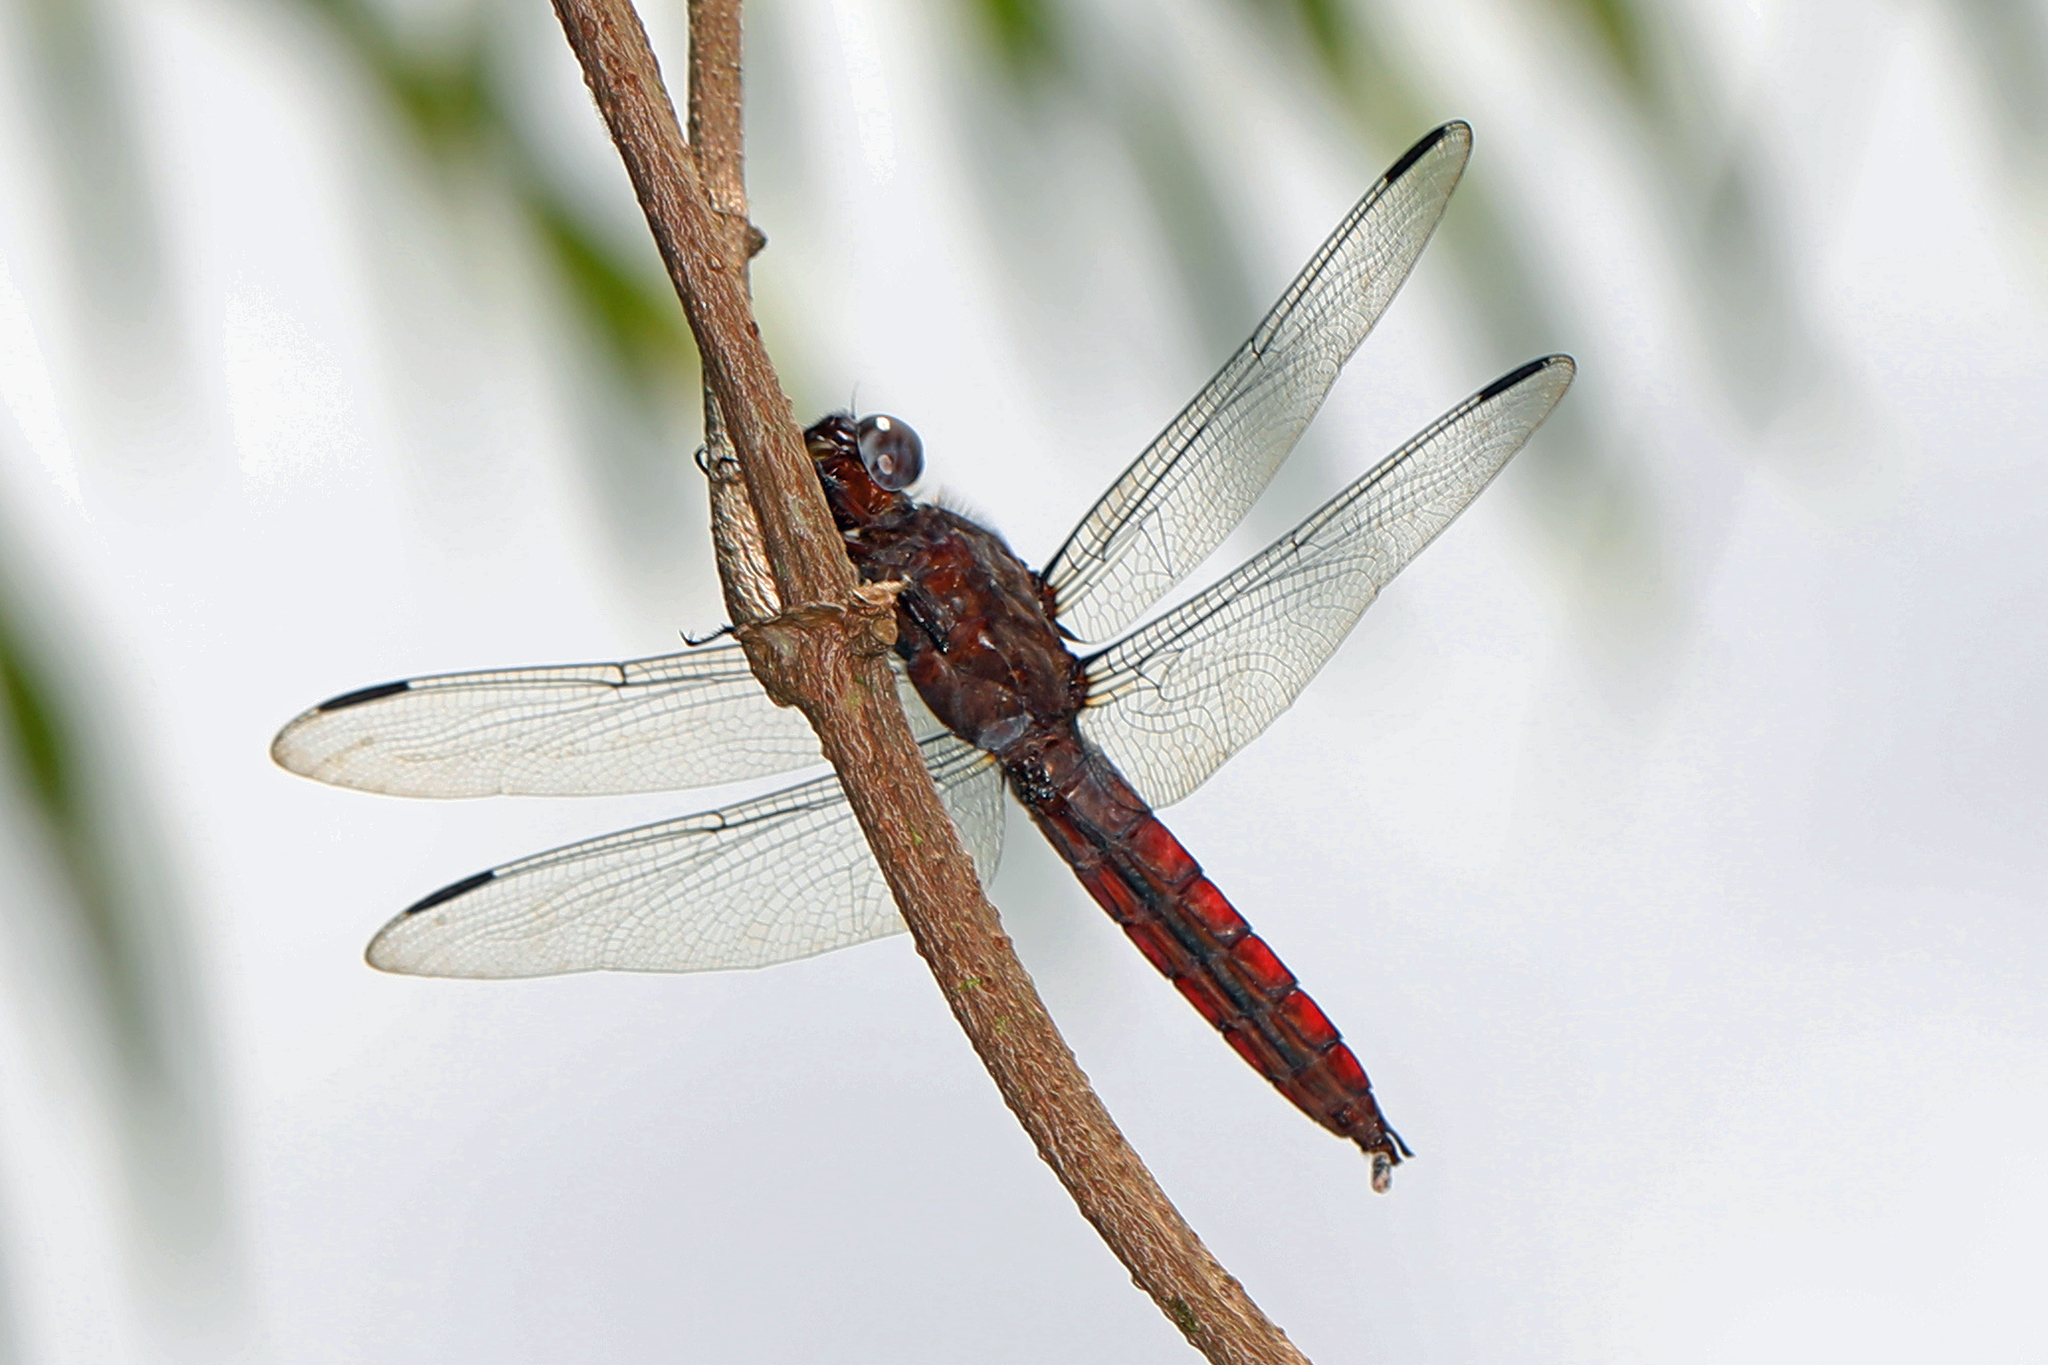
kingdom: Animalia
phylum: Arthropoda
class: Insecta
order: Odonata
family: Libellulidae
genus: Libellula
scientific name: Libellula herculea
